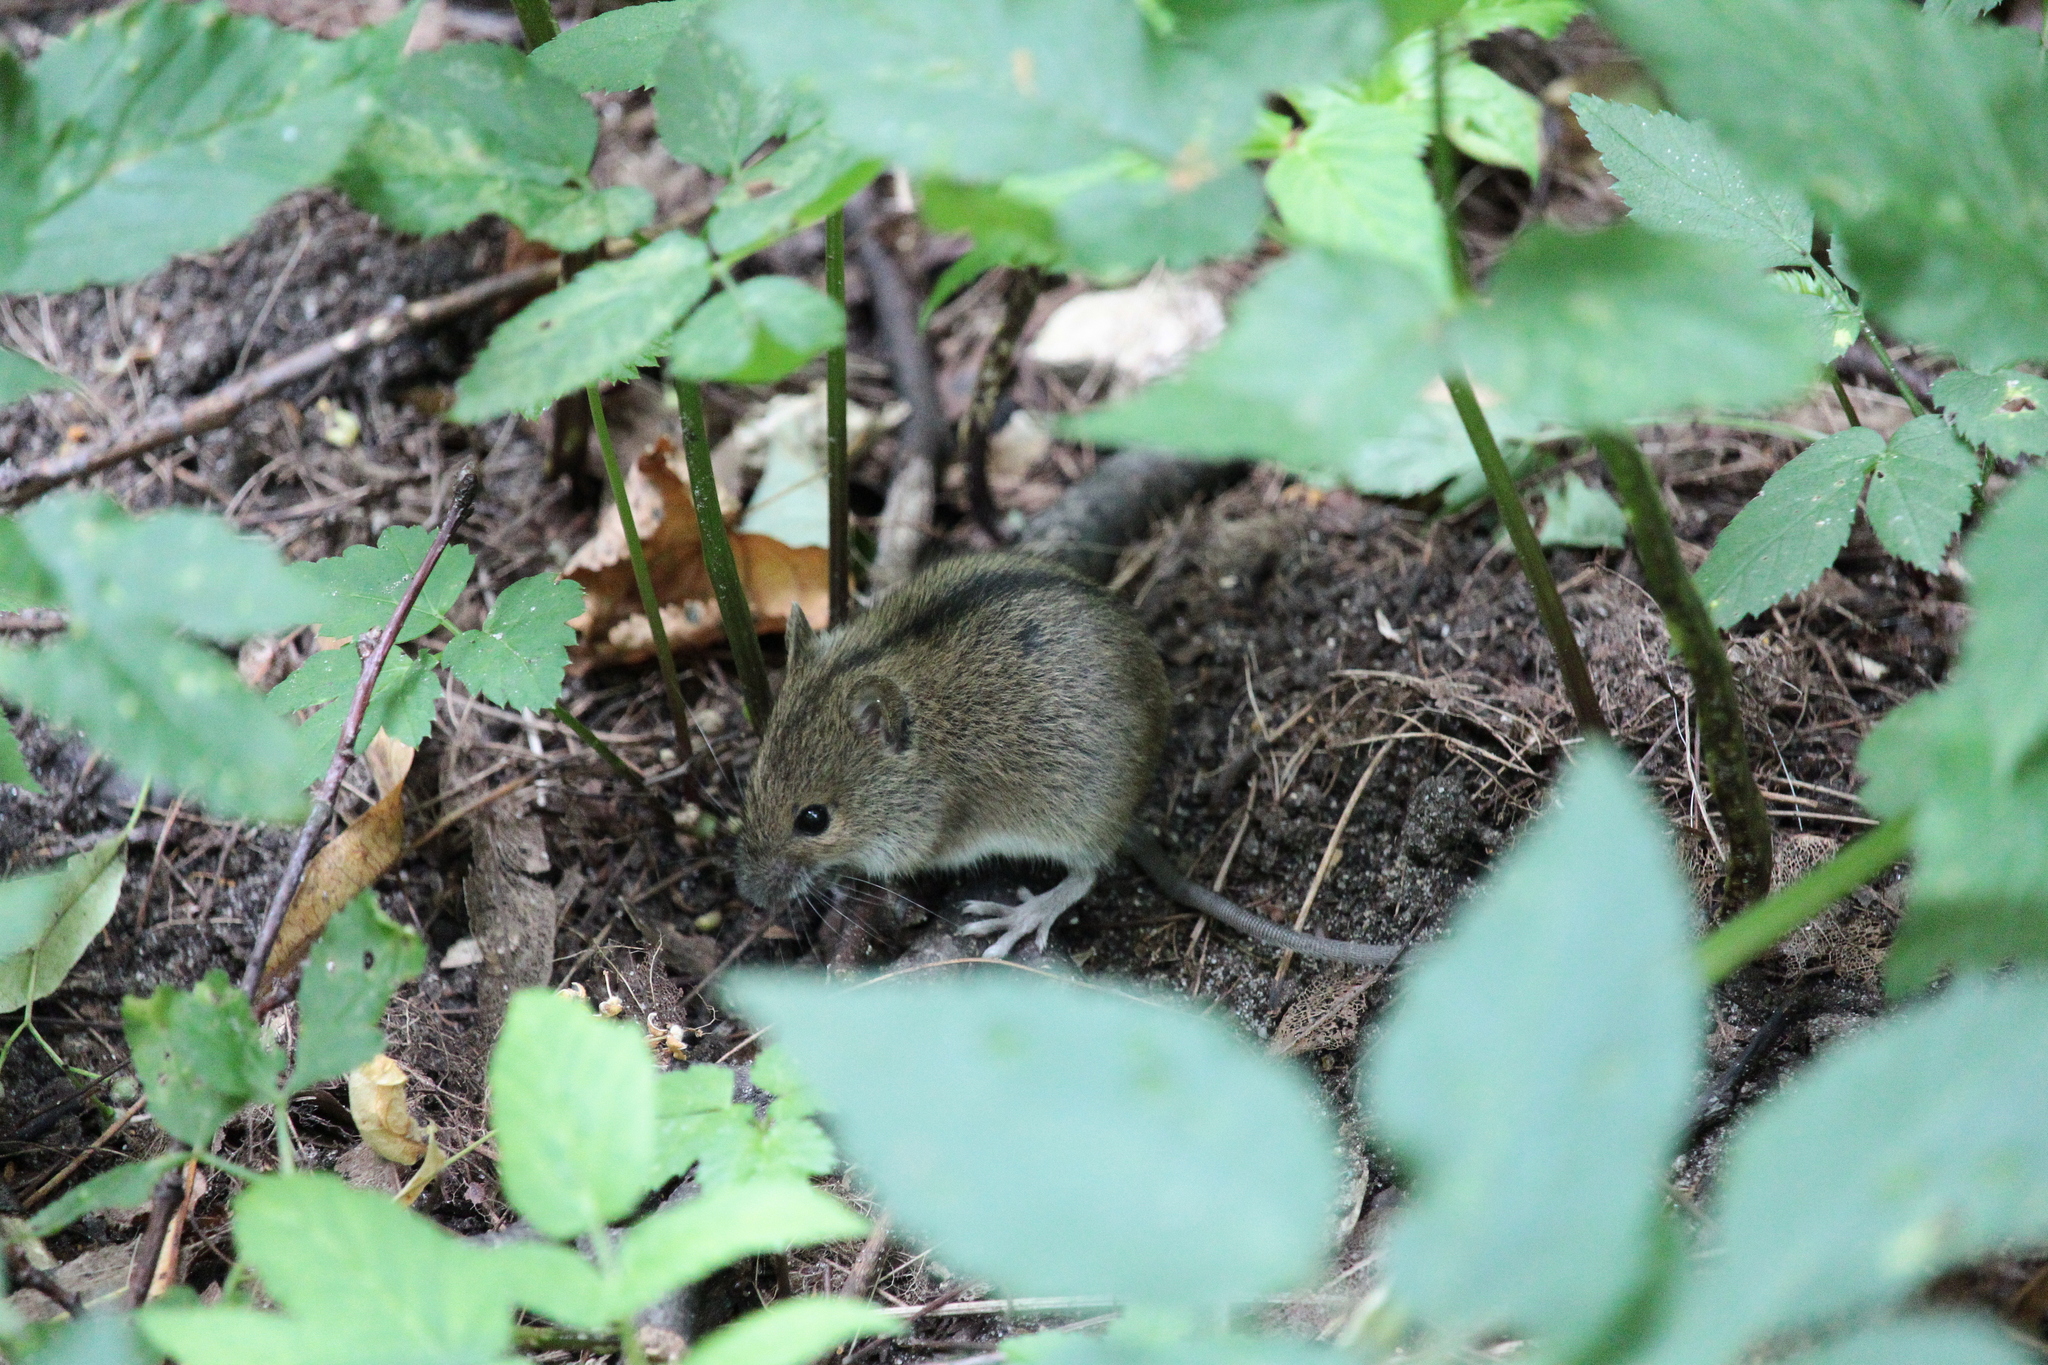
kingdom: Animalia
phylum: Chordata
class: Mammalia
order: Rodentia
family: Muridae
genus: Apodemus
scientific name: Apodemus agrarius
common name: Striped field mouse
